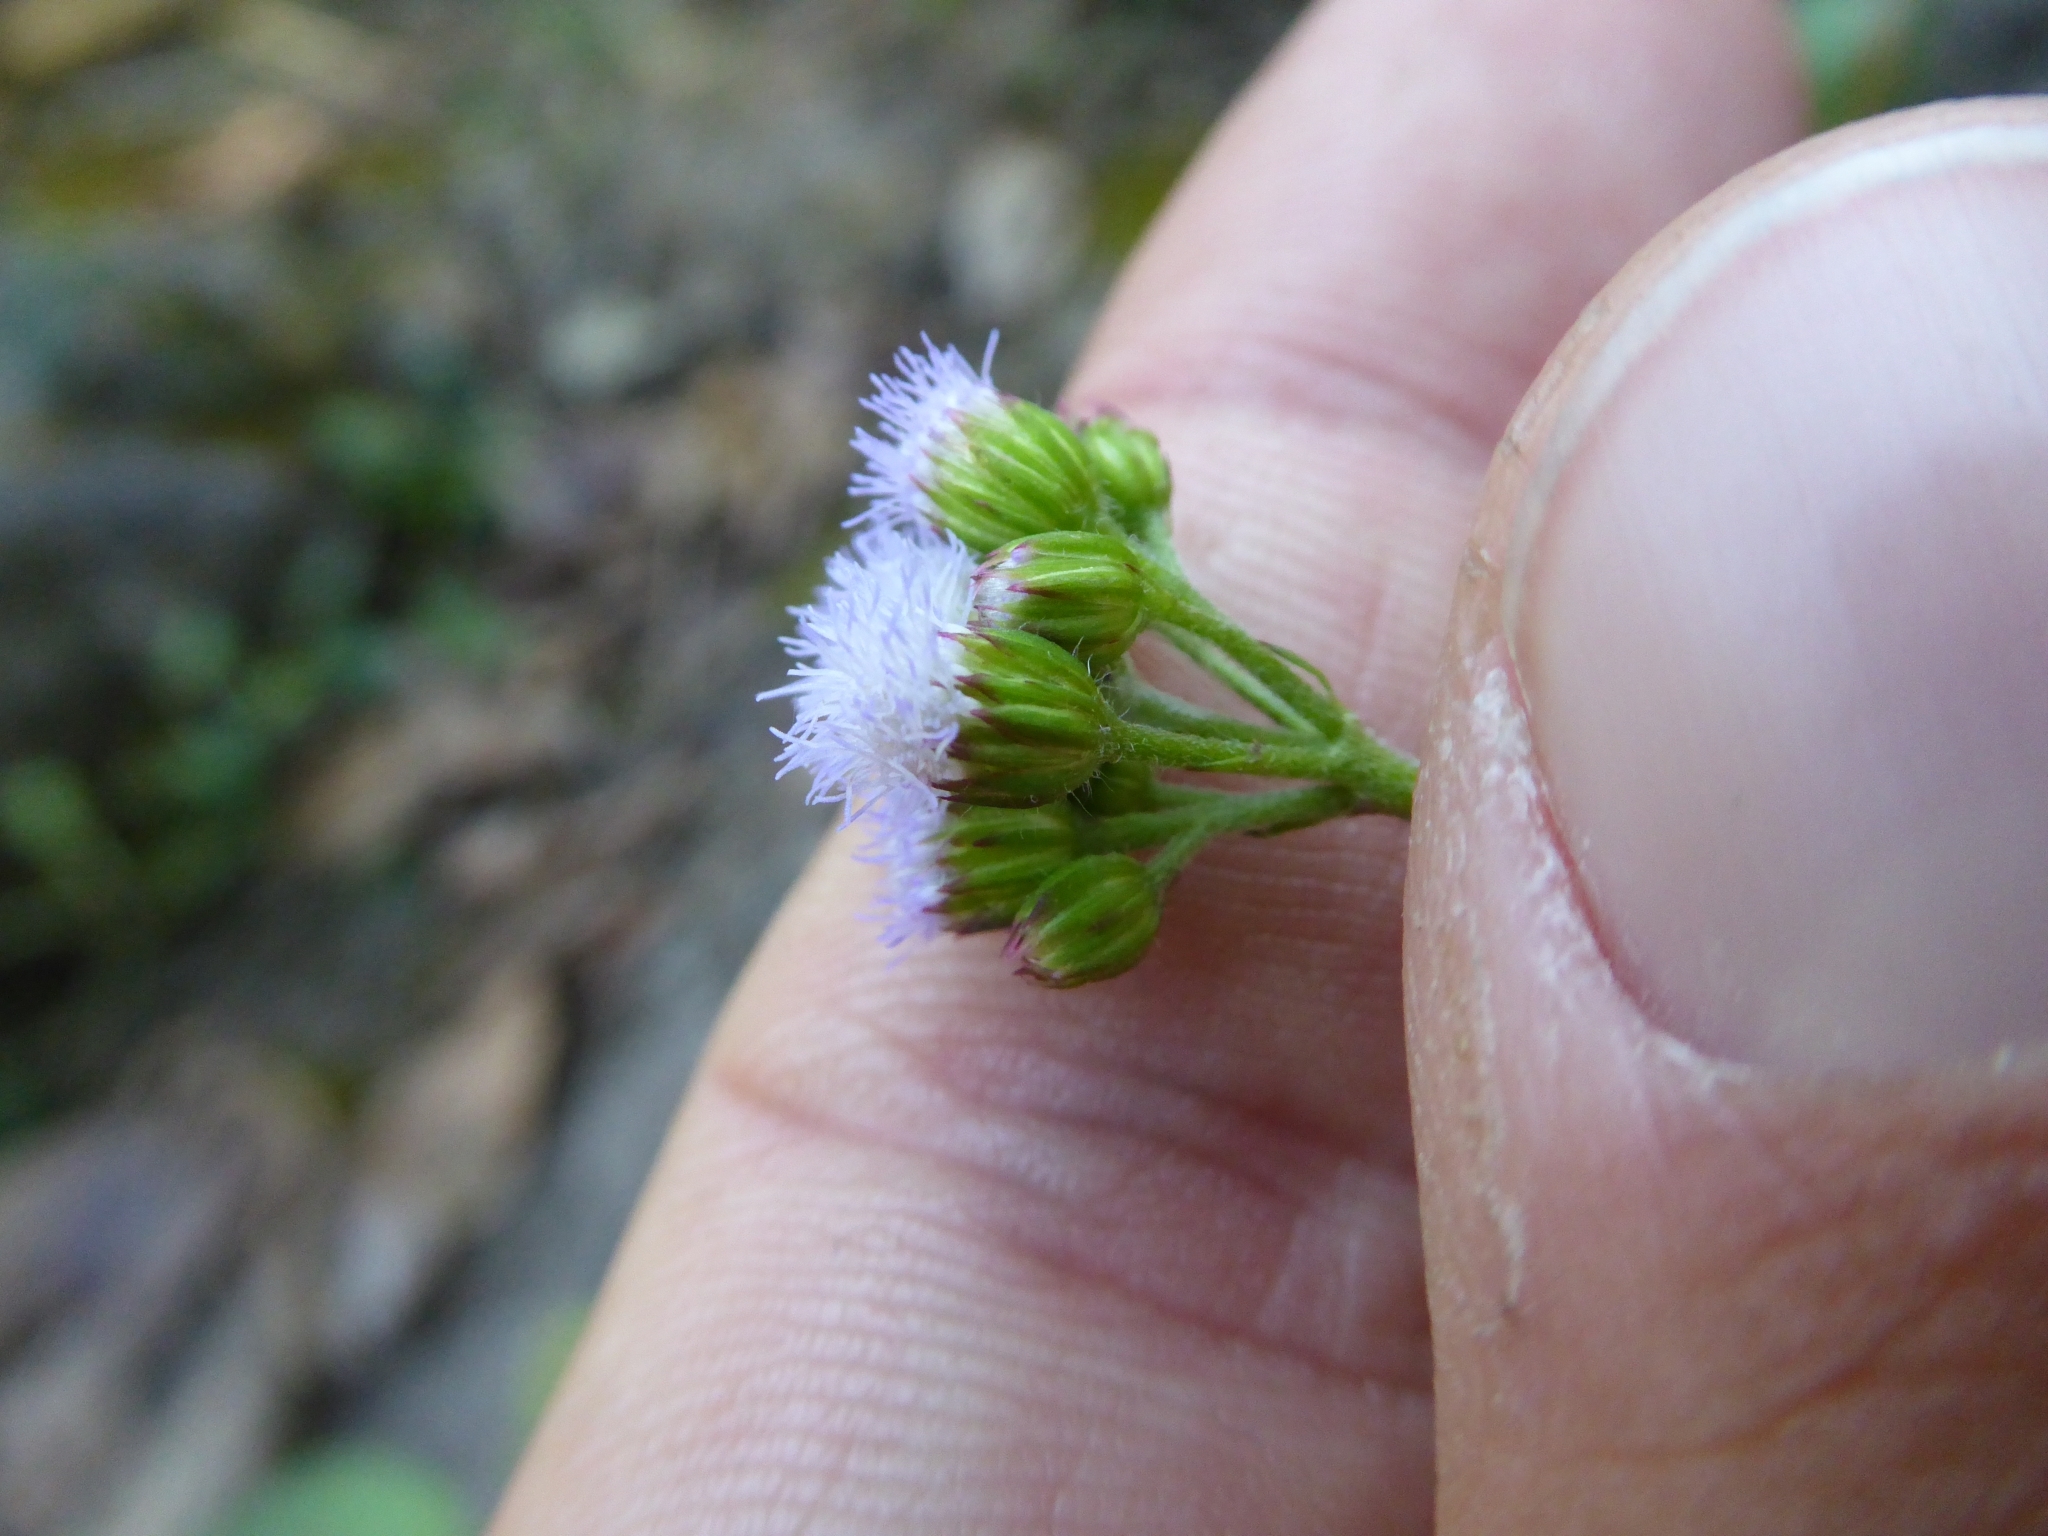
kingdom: Plantae
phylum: Tracheophyta
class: Magnoliopsida
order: Asterales
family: Asteraceae
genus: Ageratum
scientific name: Ageratum conyzoides
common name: Tropical whiteweed
